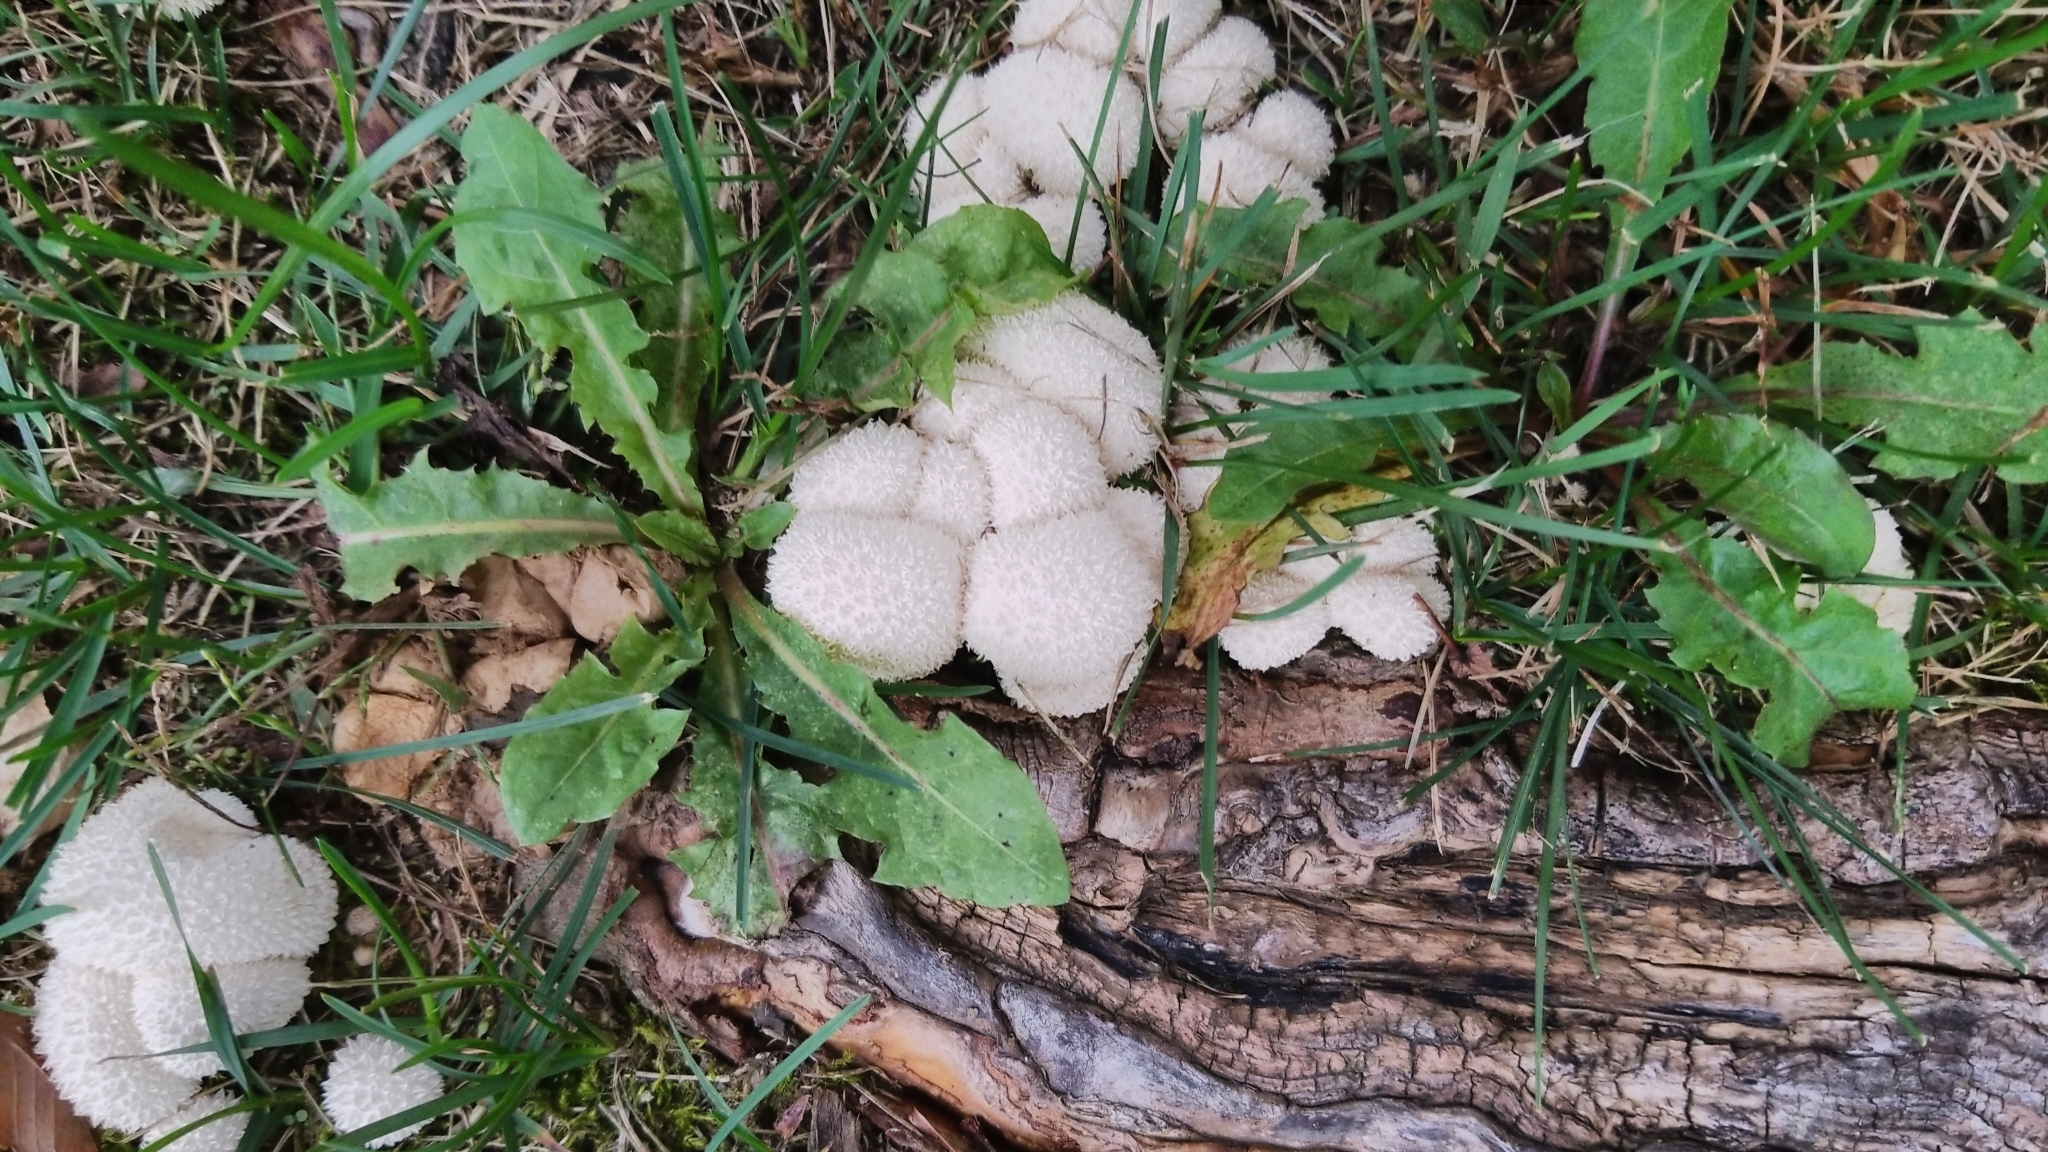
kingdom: Fungi
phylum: Basidiomycota
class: Agaricomycetes
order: Agaricales
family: Lycoperdaceae
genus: Lycoperdon
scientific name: Lycoperdon perlatum
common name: Common puffball
